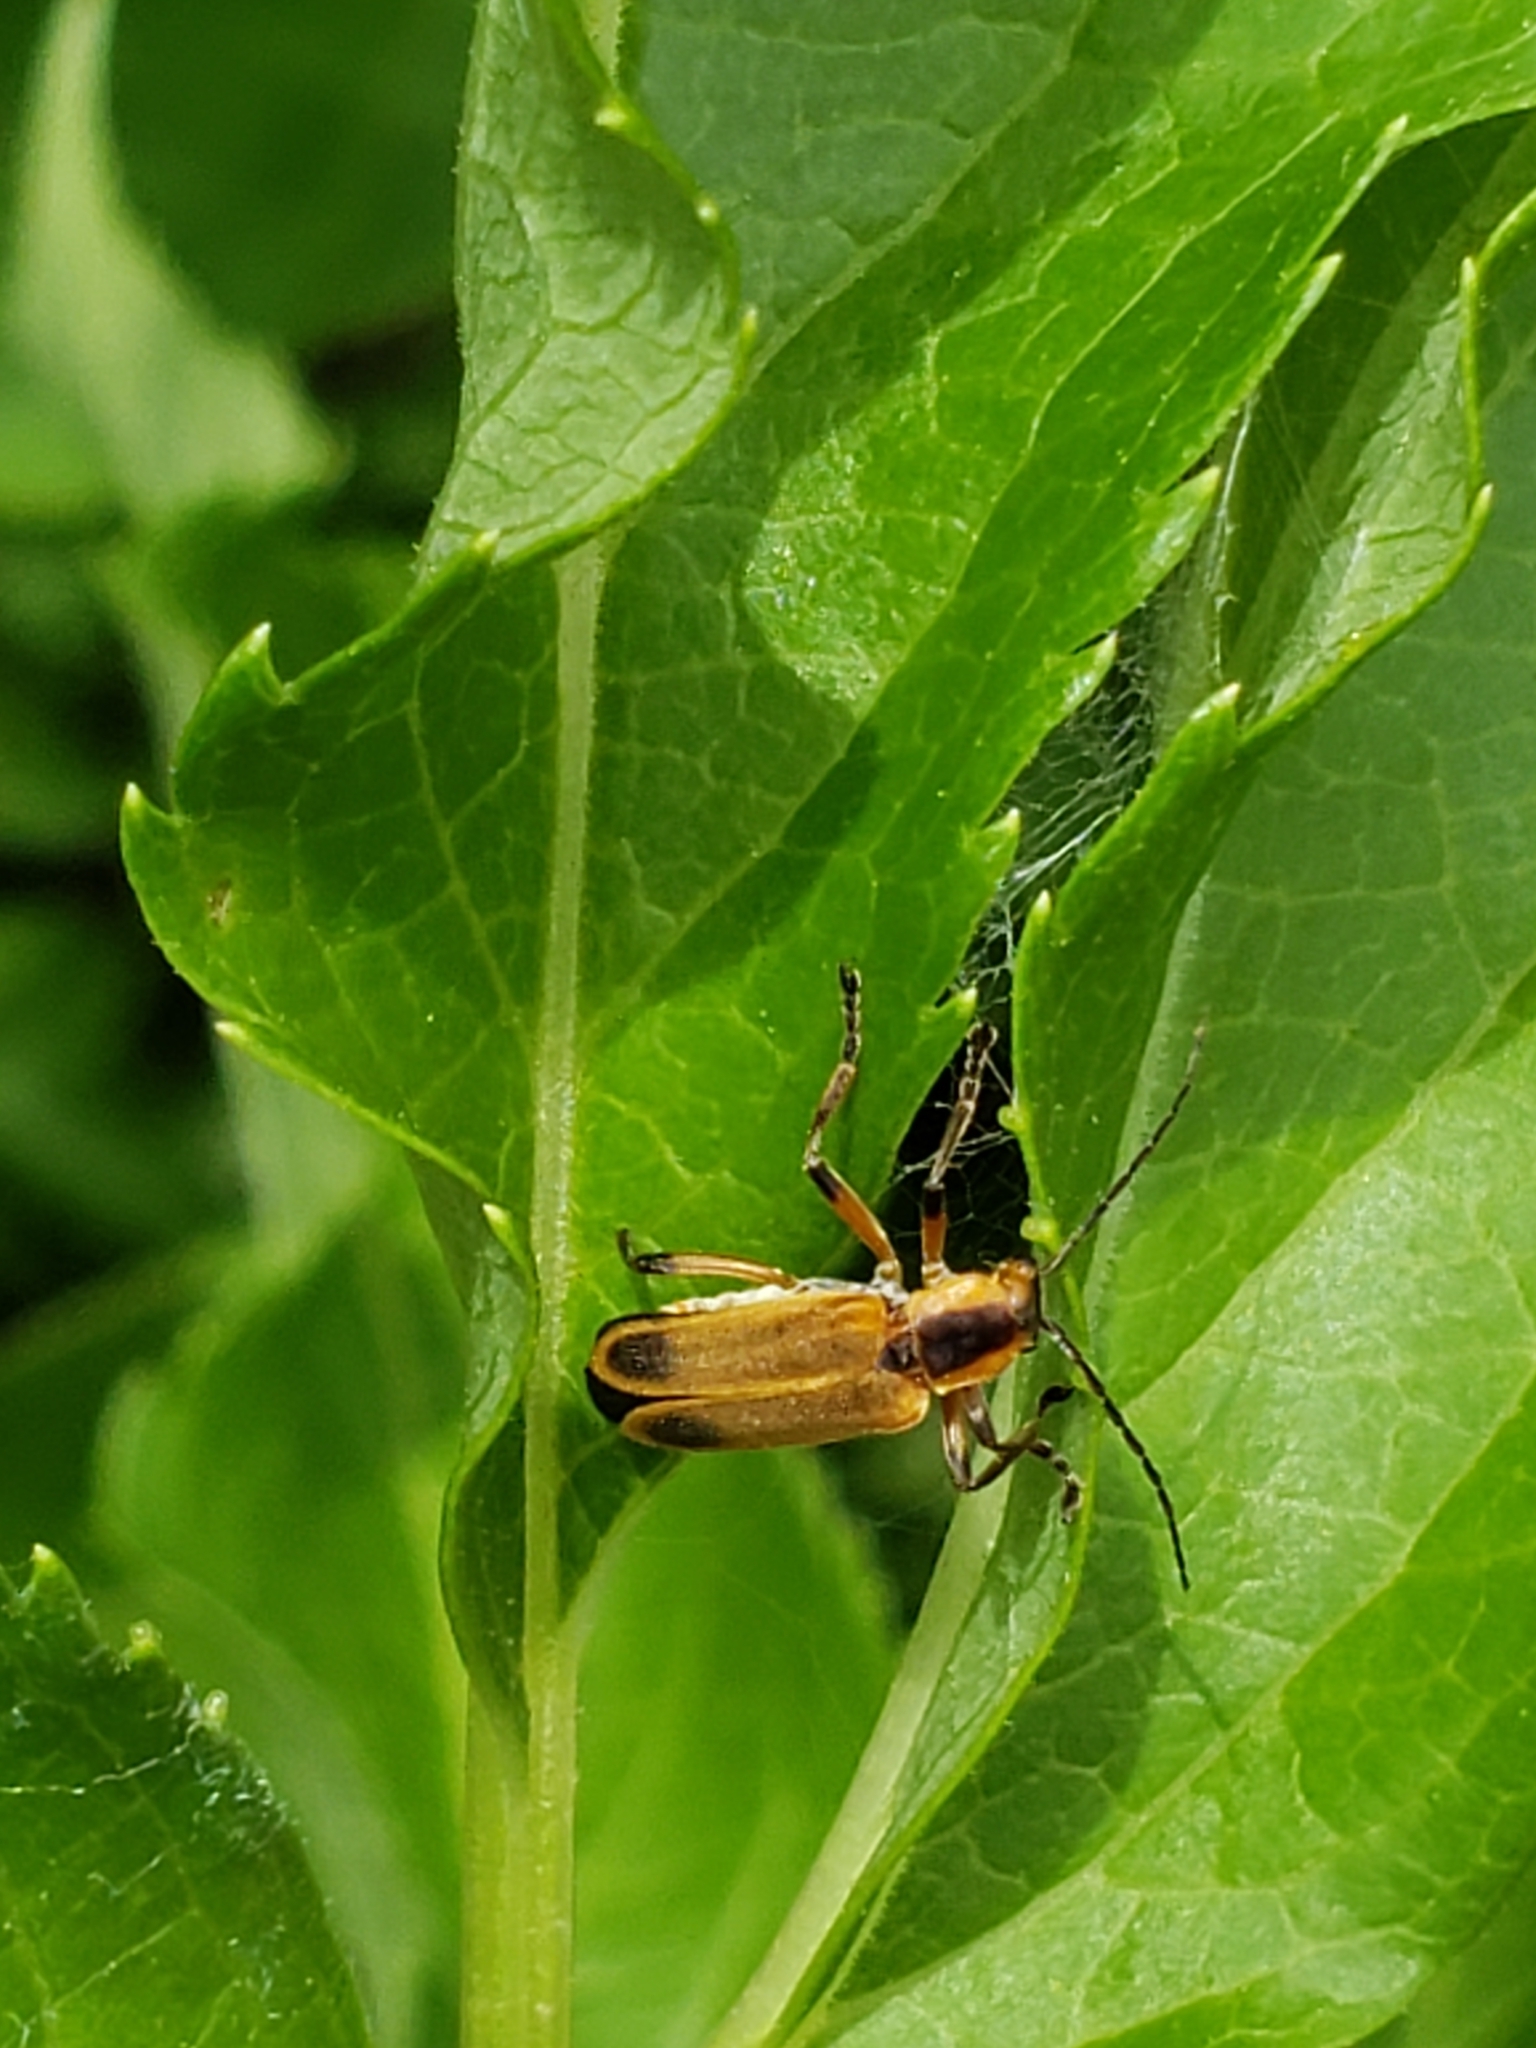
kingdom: Animalia
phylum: Arthropoda
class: Insecta
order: Coleoptera
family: Cantharidae
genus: Chauliognathus
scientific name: Chauliognathus marginatus
